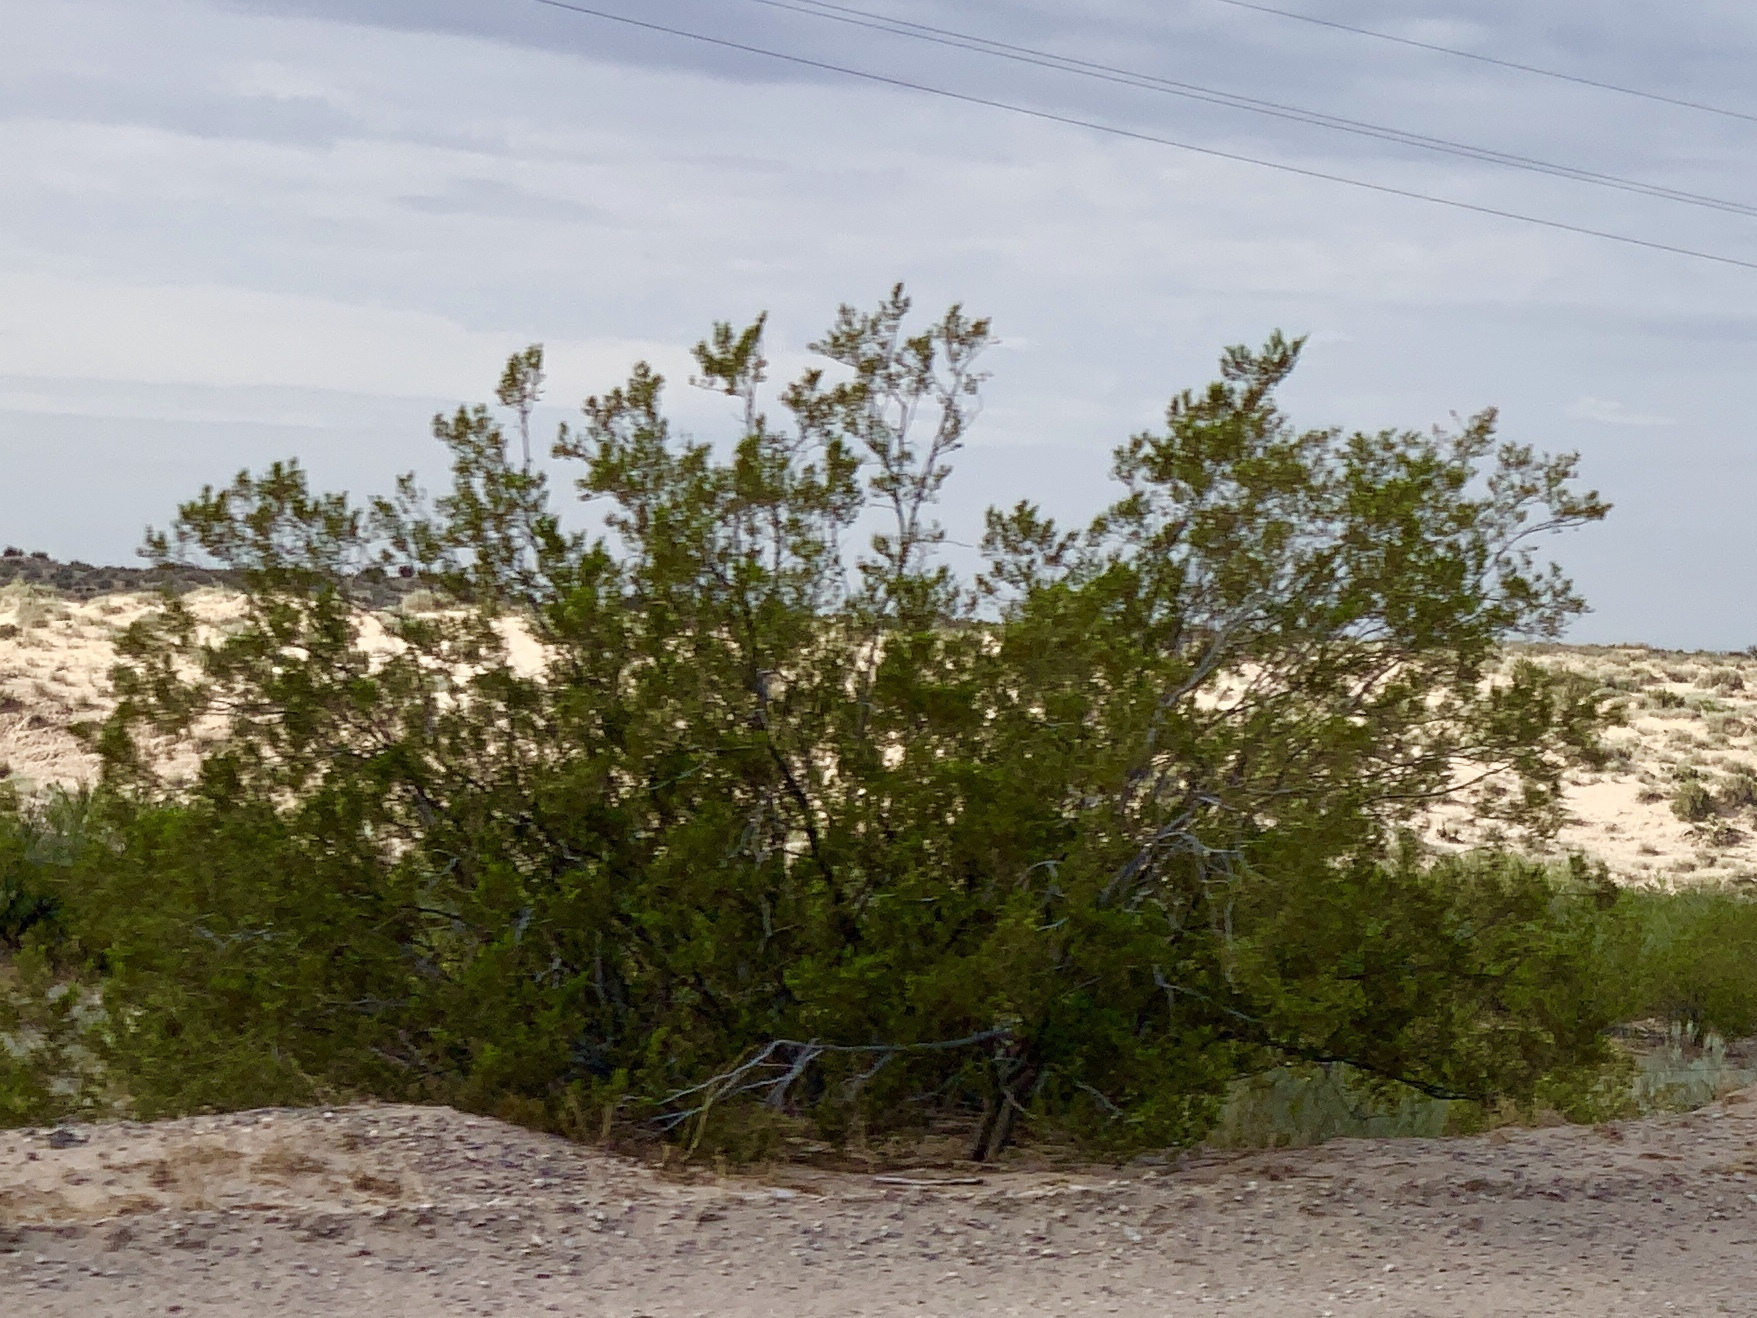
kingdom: Plantae
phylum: Tracheophyta
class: Magnoliopsida
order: Zygophyllales
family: Zygophyllaceae
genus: Larrea
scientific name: Larrea tridentata
